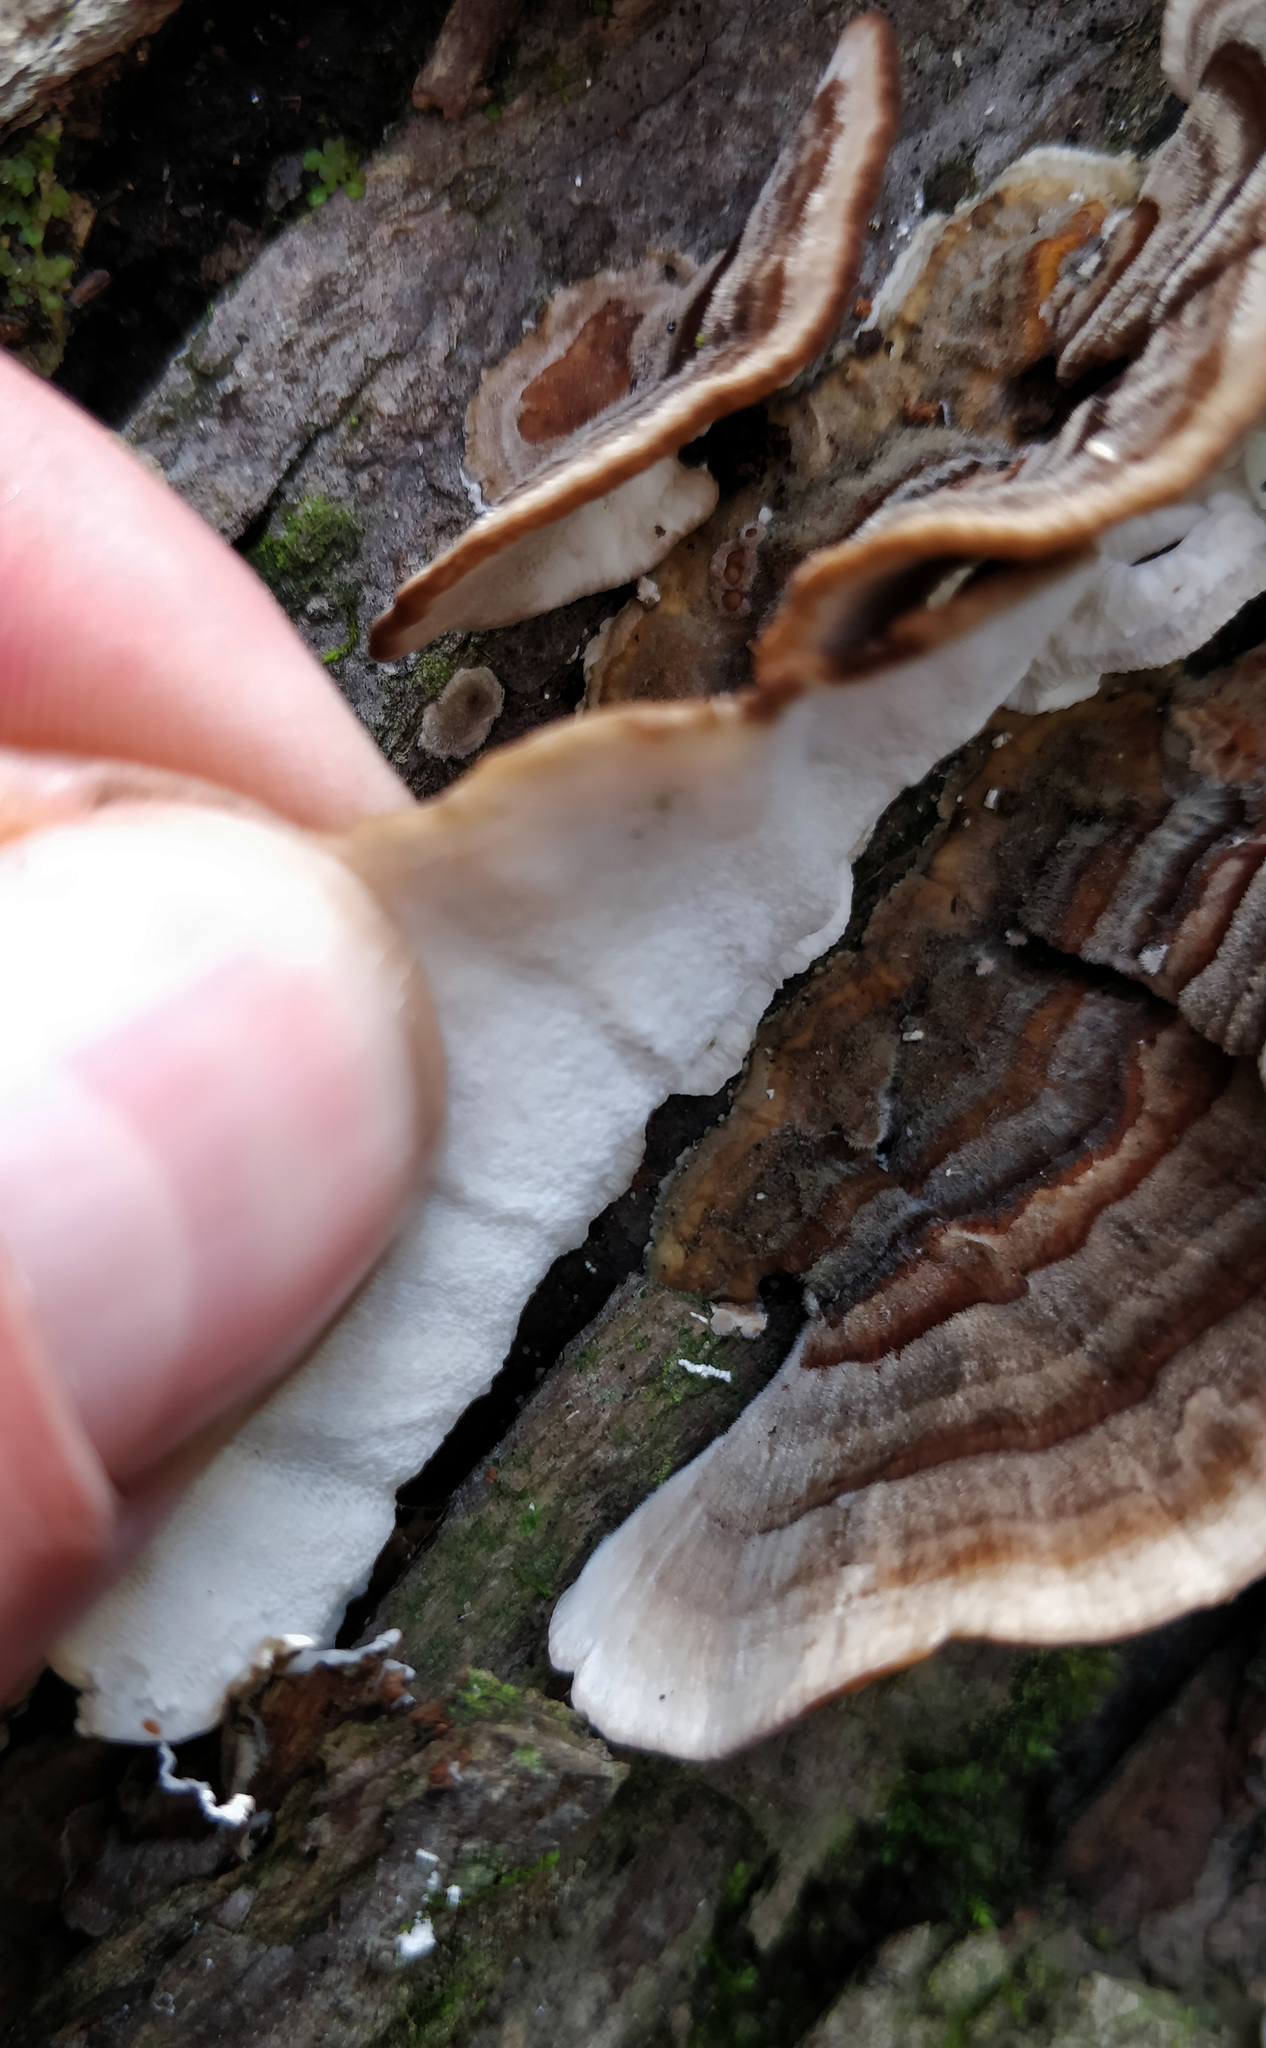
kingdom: Fungi
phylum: Basidiomycota
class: Agaricomycetes
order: Polyporales
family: Polyporaceae
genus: Trametes
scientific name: Trametes versicolor
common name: Turkeytail
